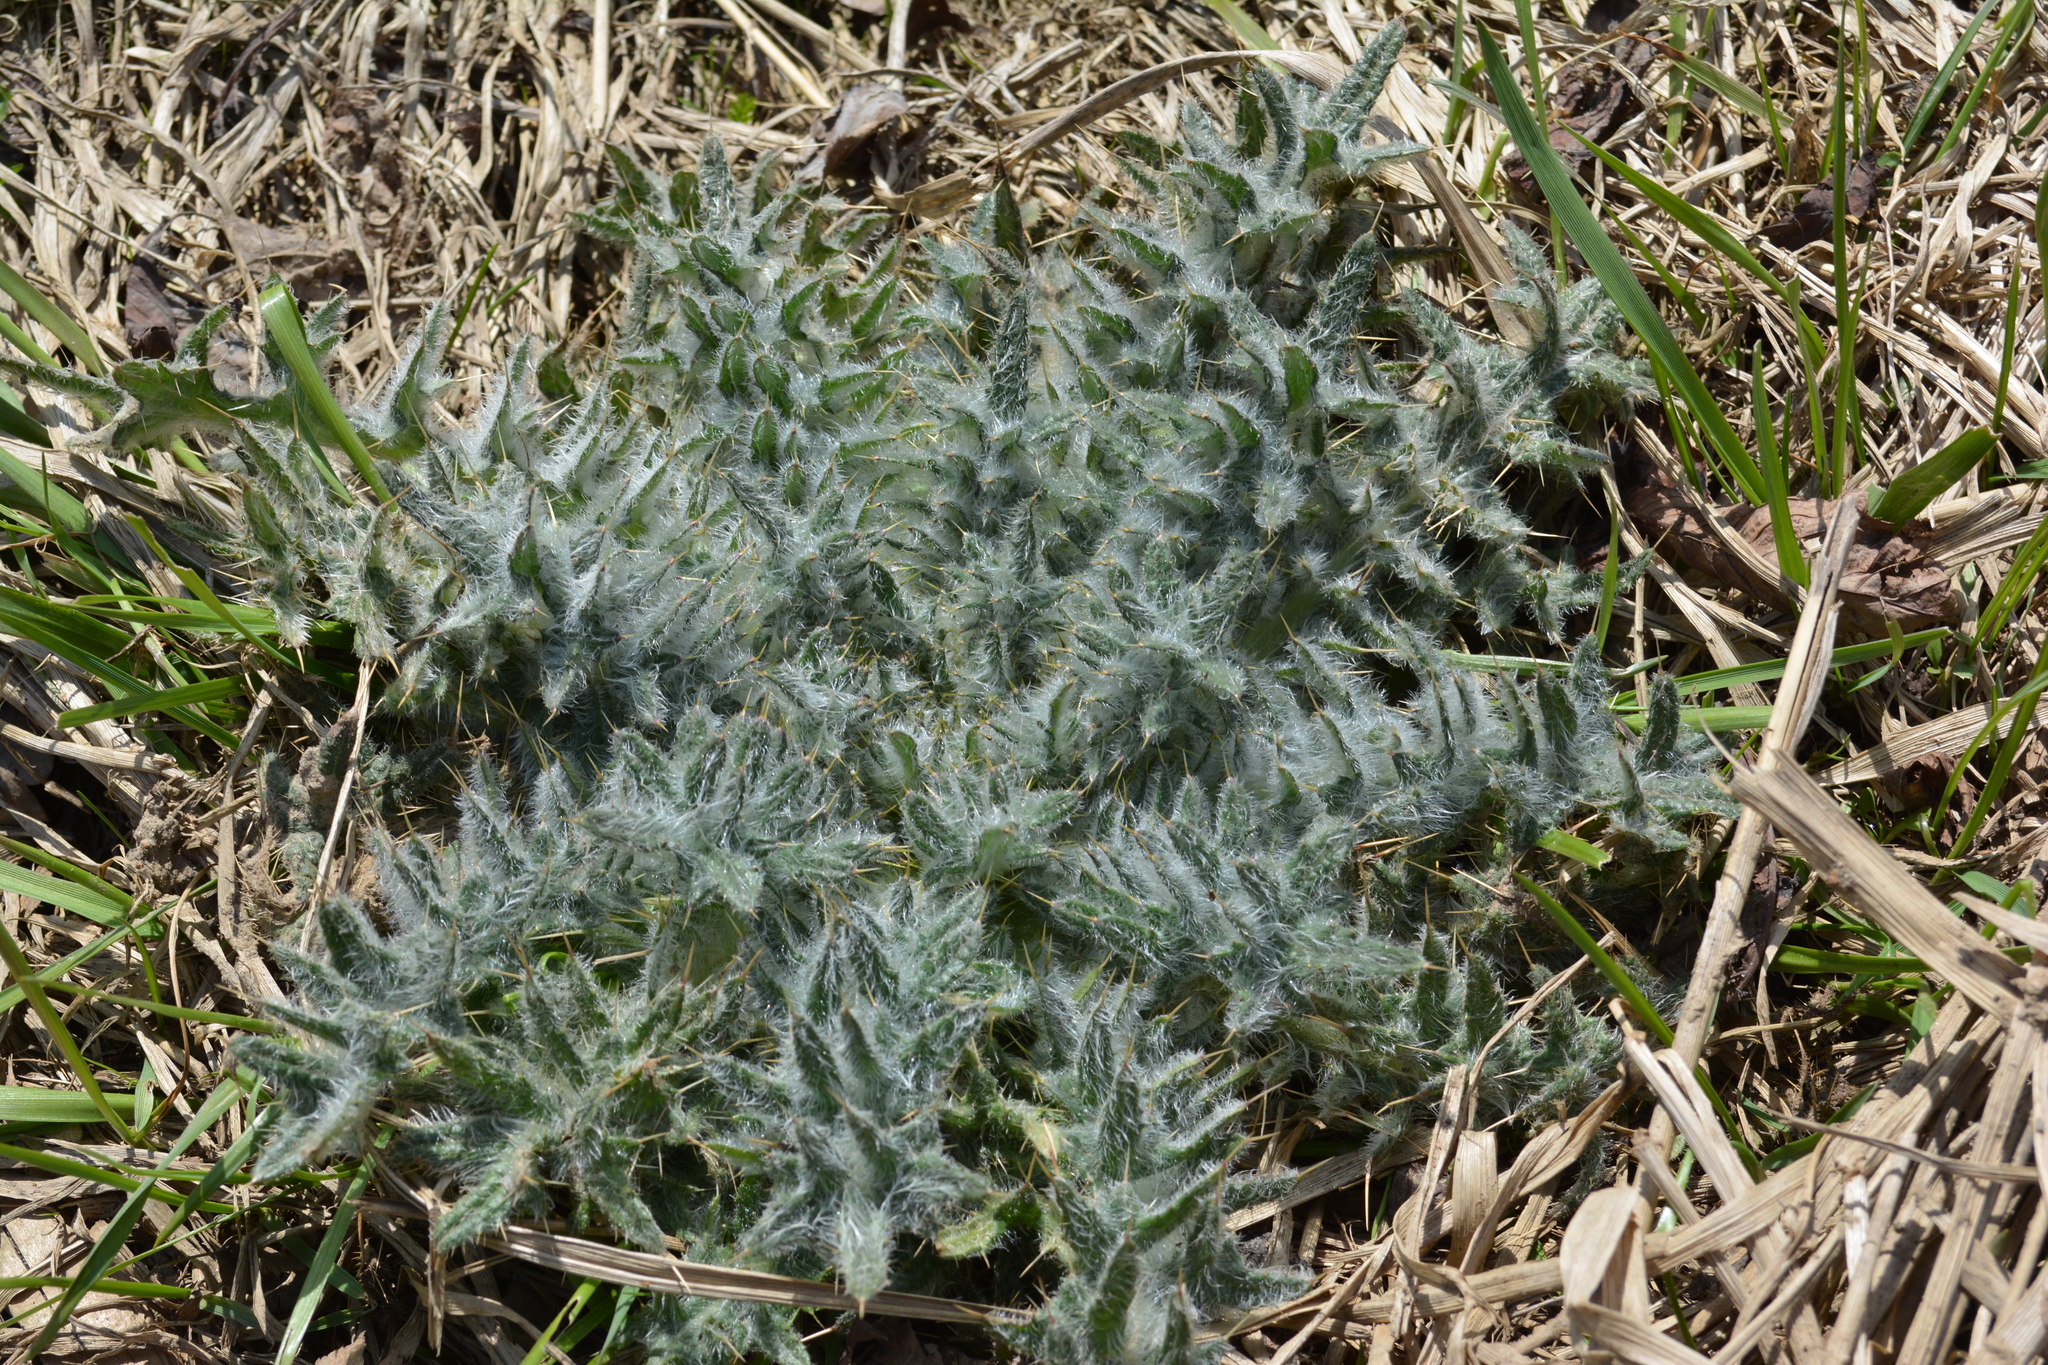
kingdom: Plantae
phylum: Tracheophyta
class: Magnoliopsida
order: Asterales
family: Asteraceae
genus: Cirsium
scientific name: Cirsium vulgare
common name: Bull thistle
